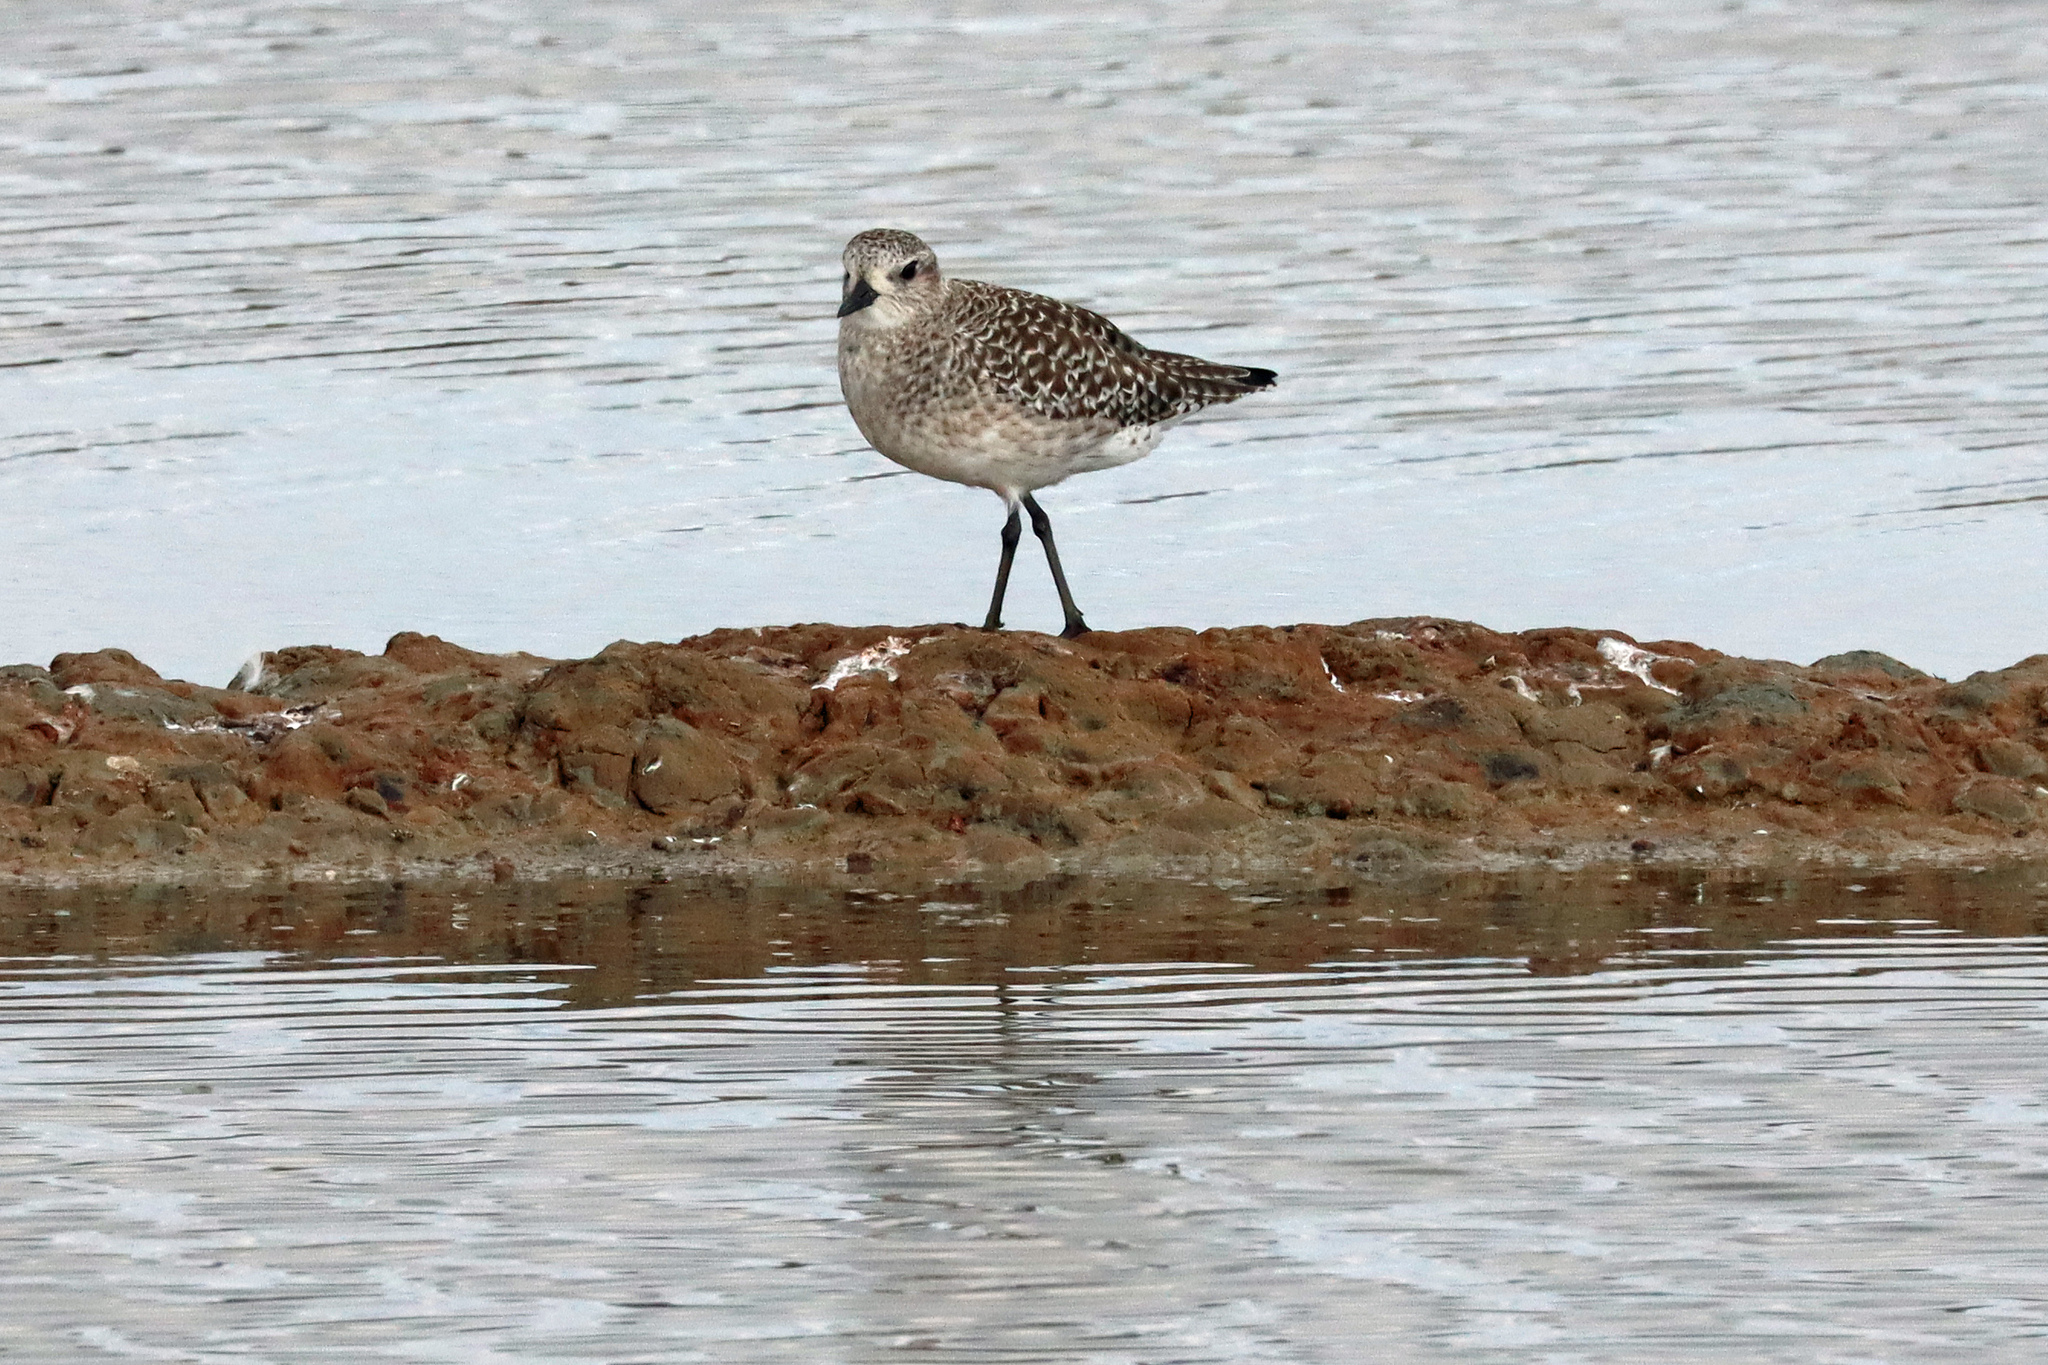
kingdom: Animalia
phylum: Chordata
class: Aves
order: Charadriiformes
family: Charadriidae
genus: Pluvialis
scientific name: Pluvialis squatarola
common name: Grey plover
